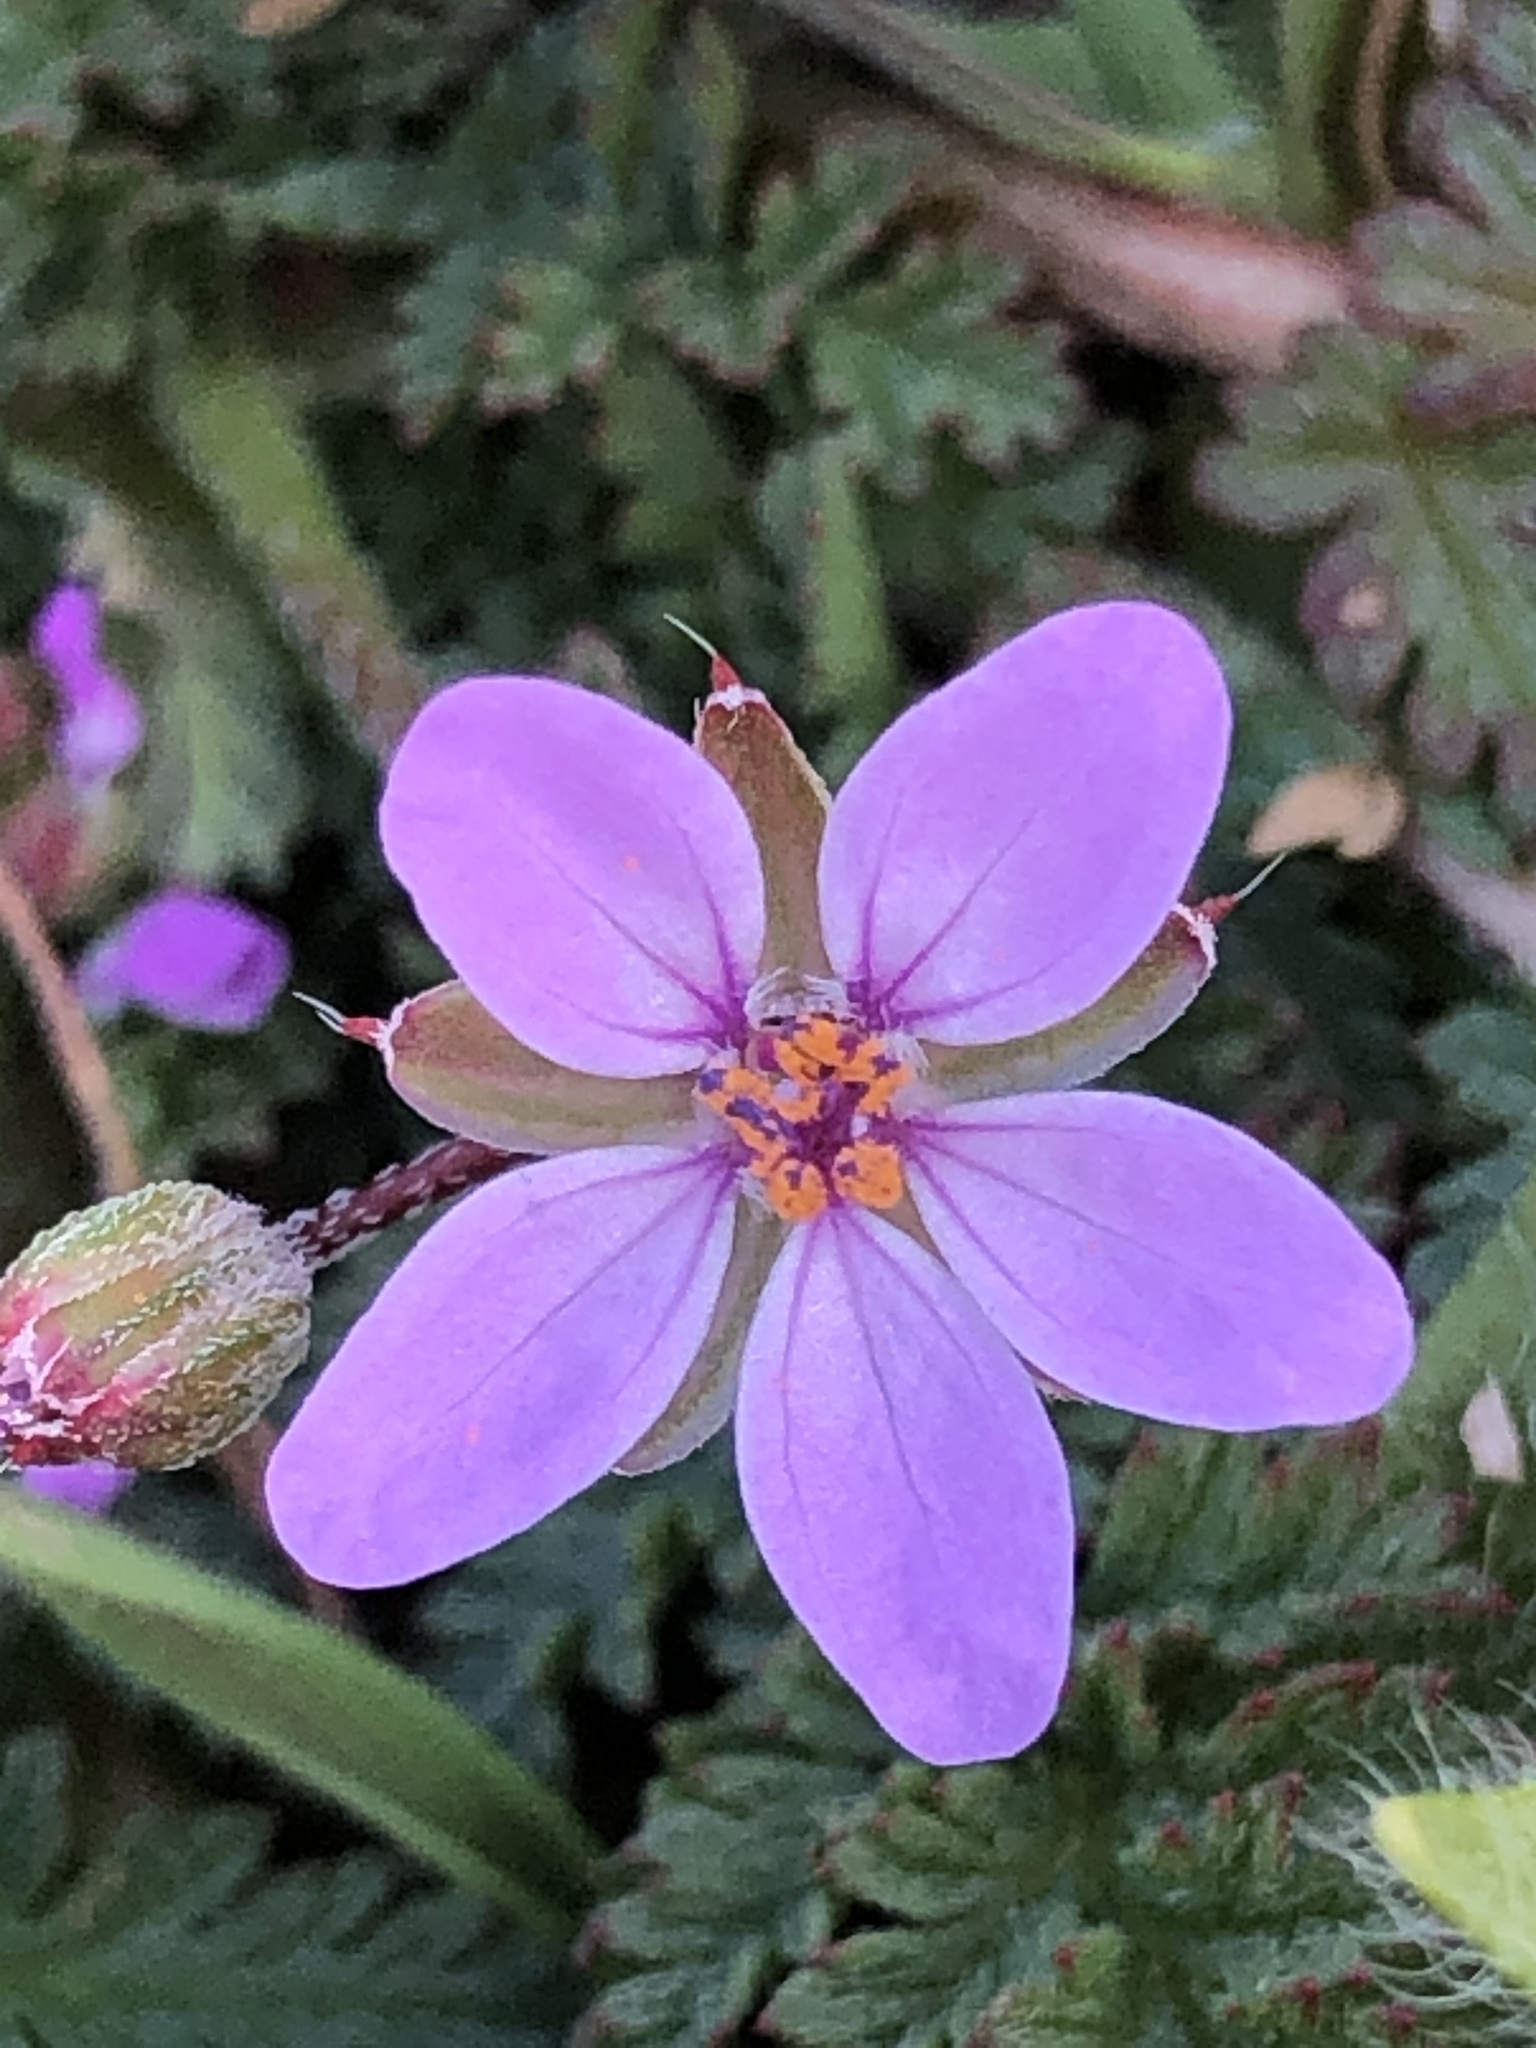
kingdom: Plantae
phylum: Tracheophyta
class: Magnoliopsida
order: Geraniales
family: Geraniaceae
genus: Erodium
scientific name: Erodium cicutarium
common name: Common stork's-bill
